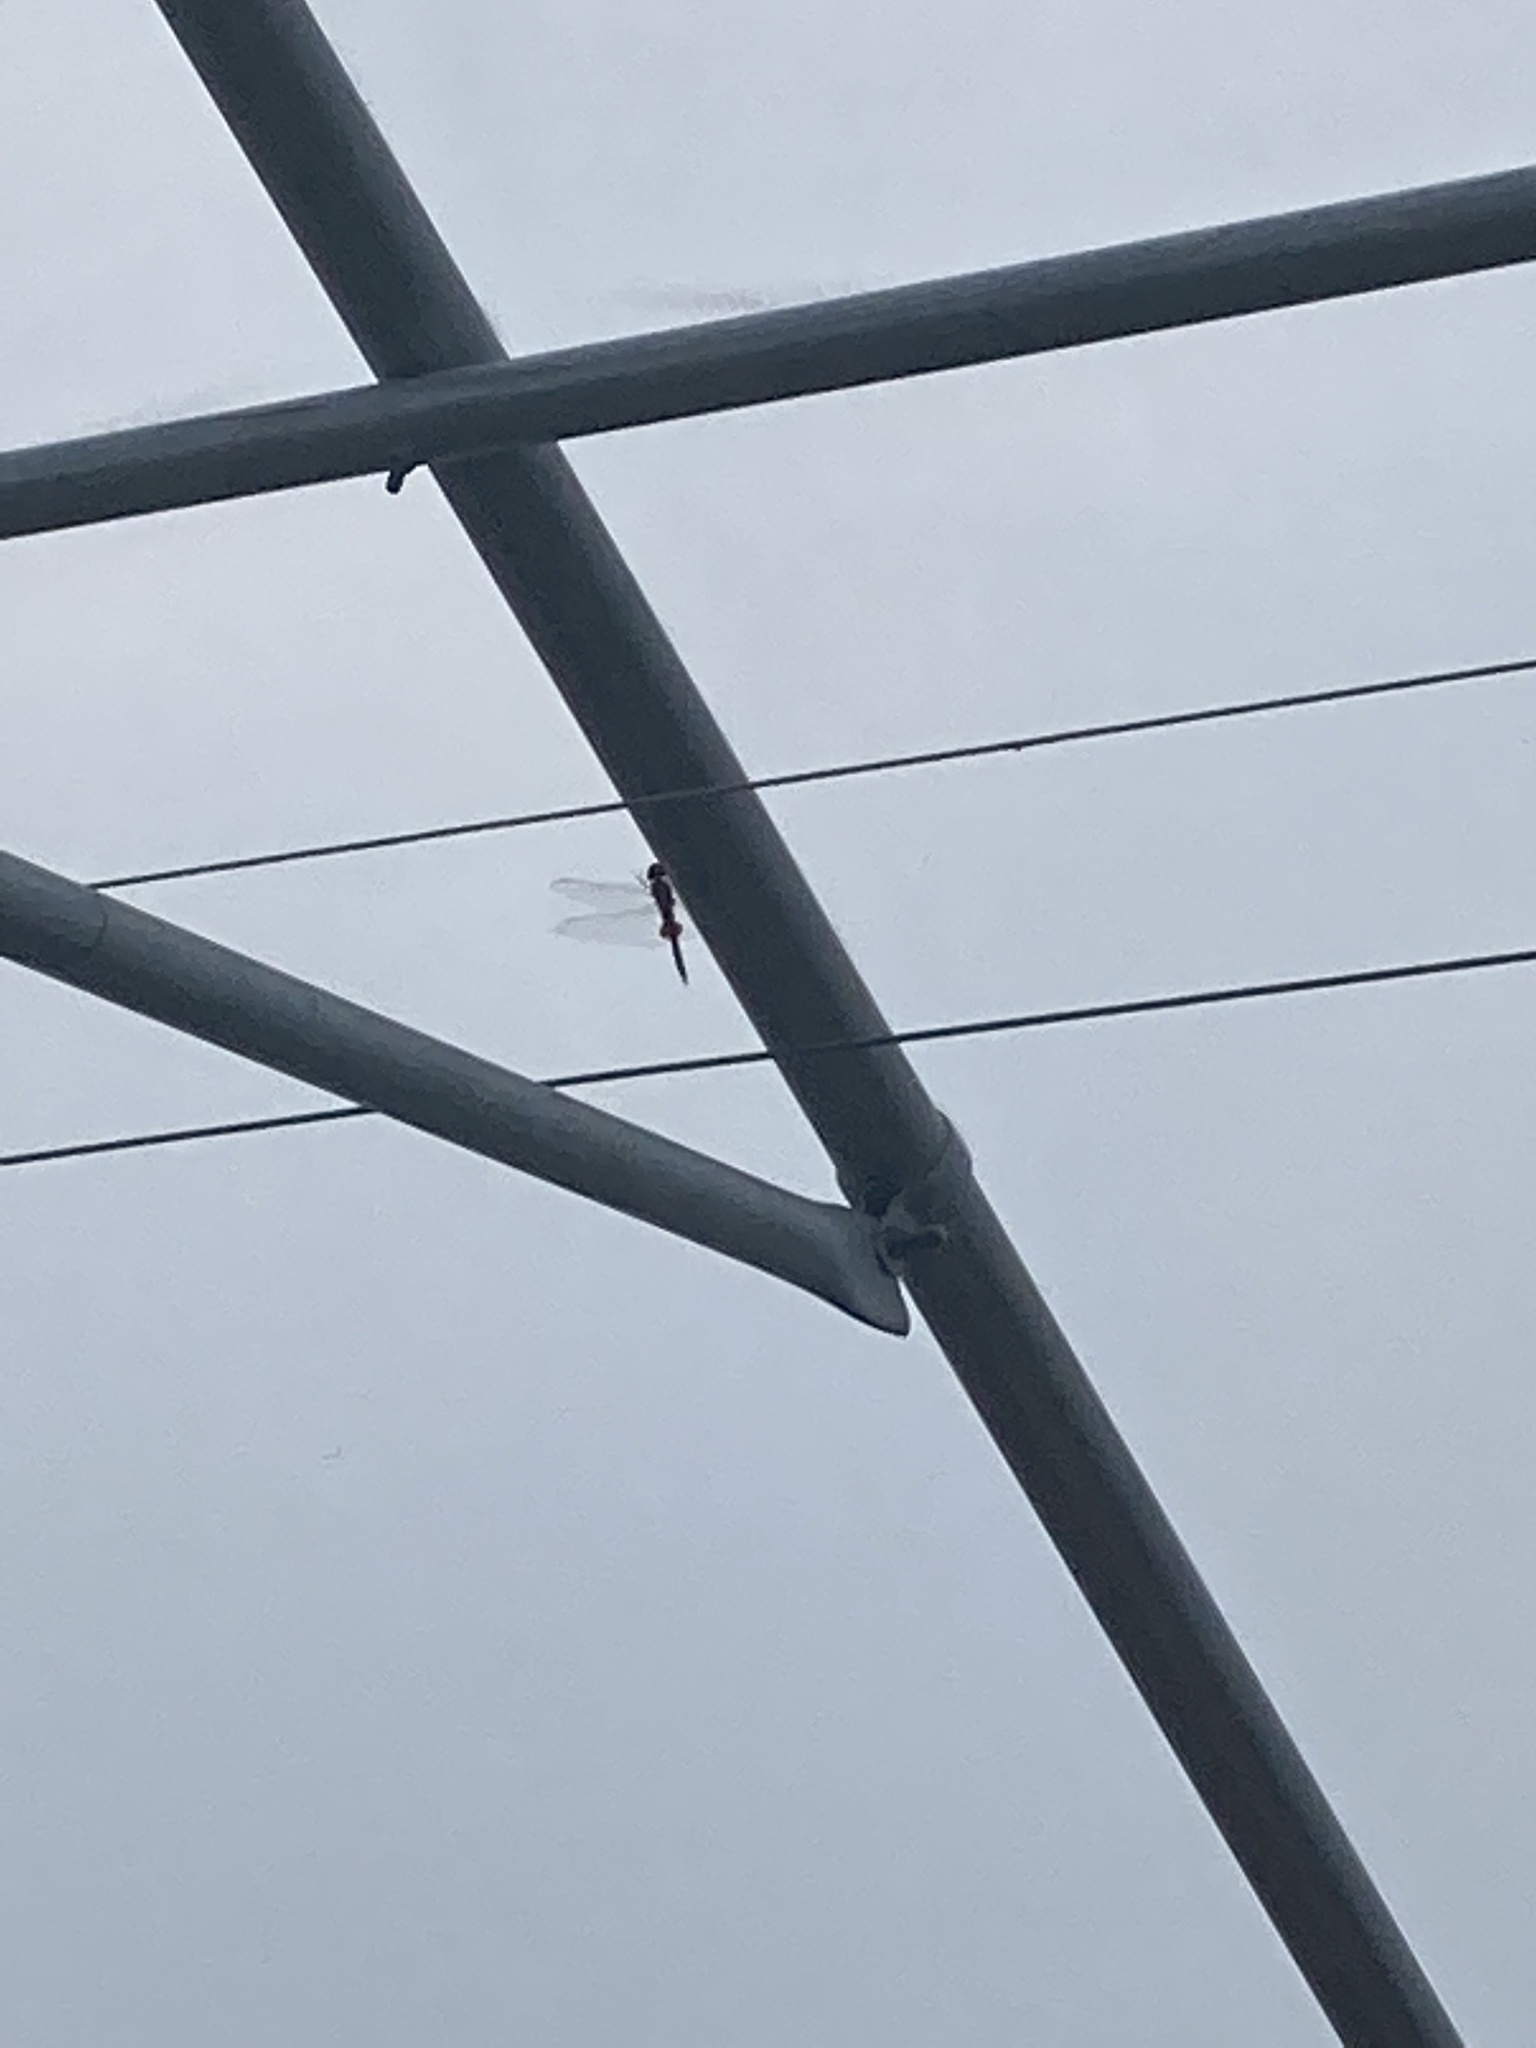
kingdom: Animalia
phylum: Arthropoda
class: Insecta
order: Odonata
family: Libellulidae
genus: Pantala
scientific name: Pantala hymenaea
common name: Spot-winged glider
